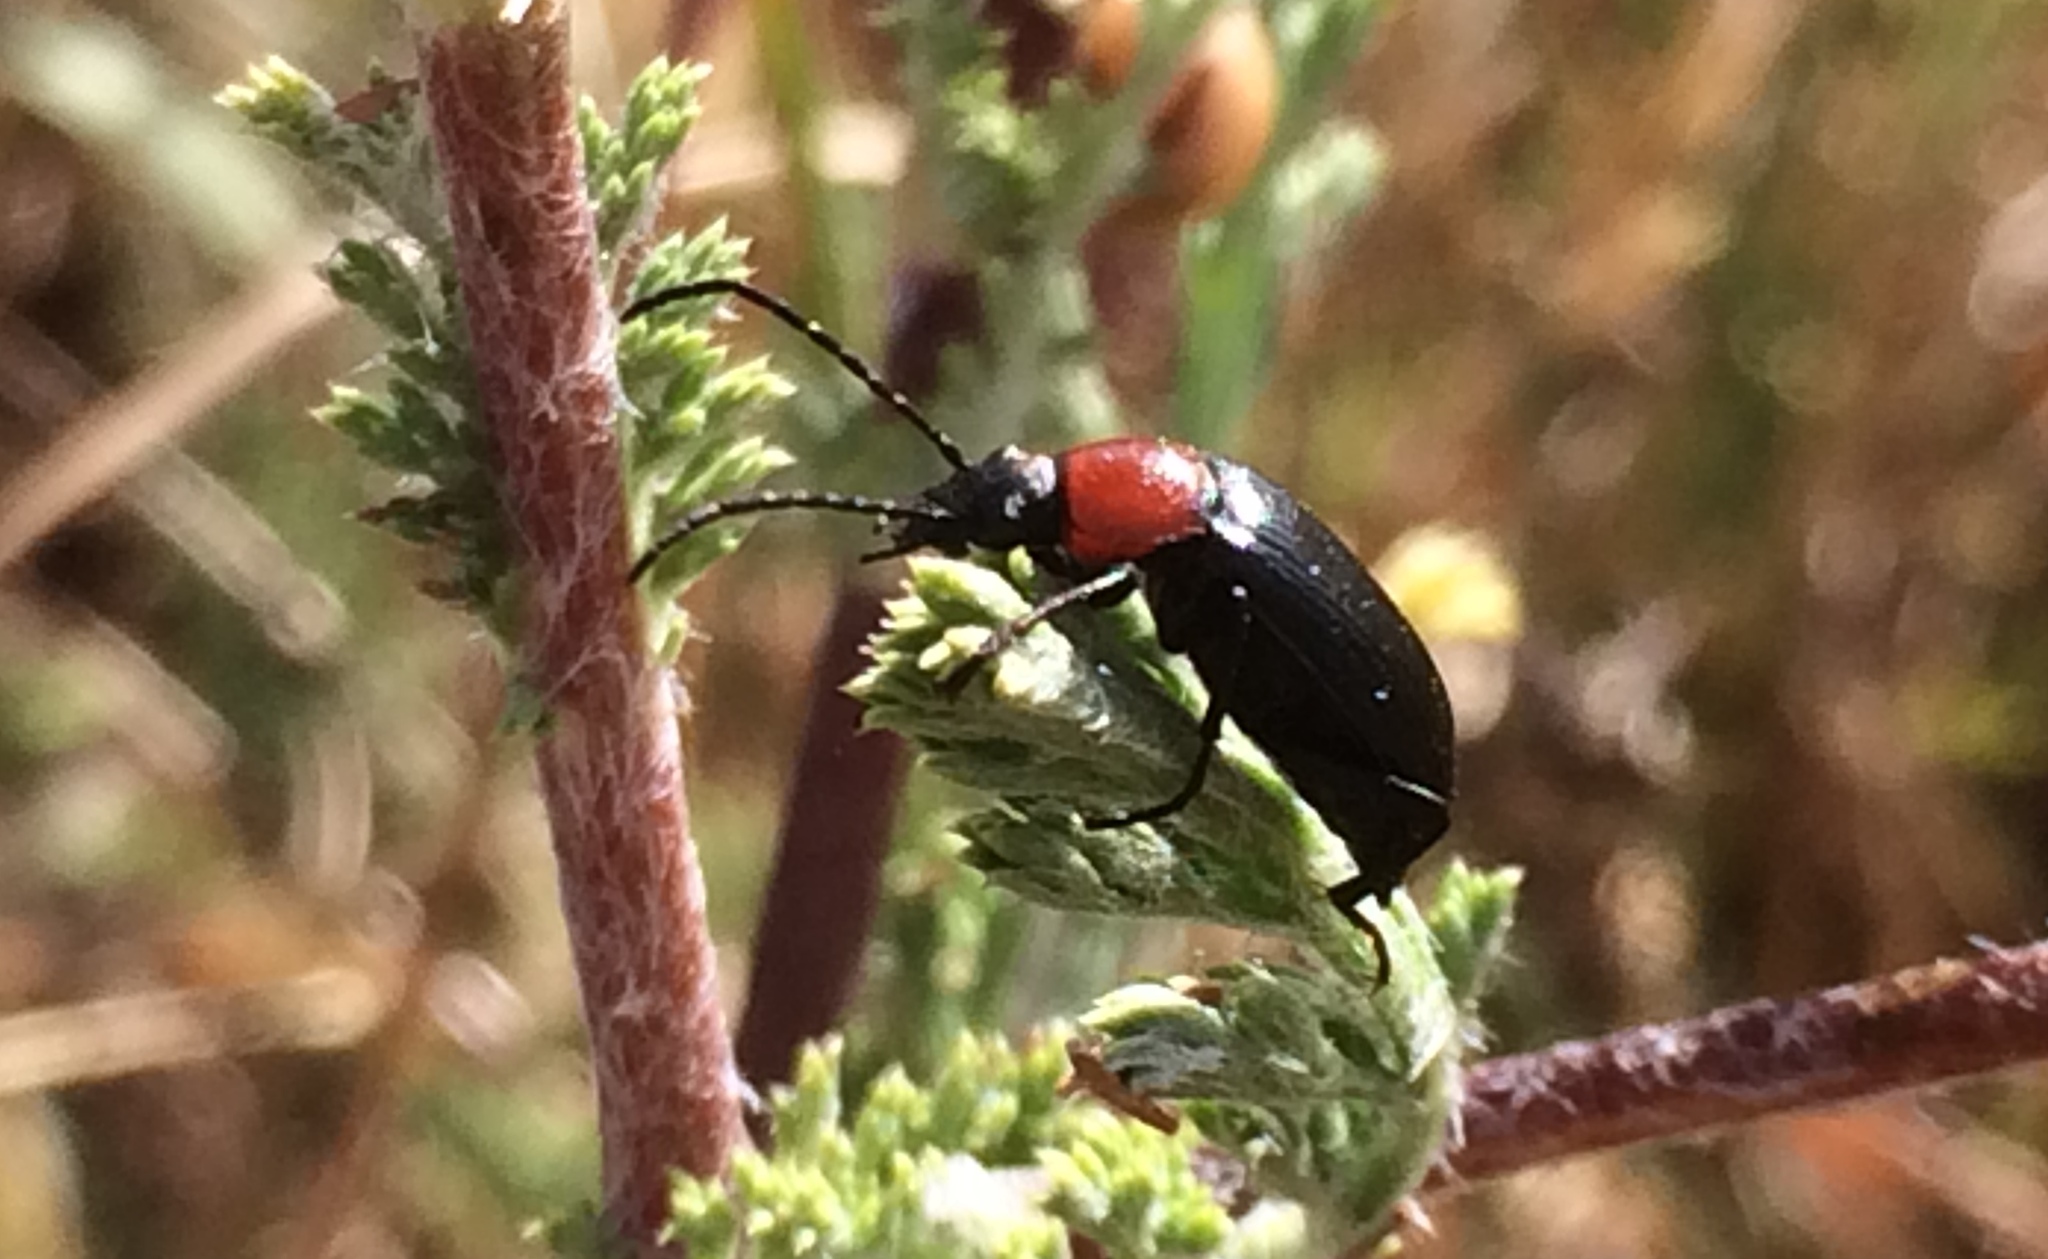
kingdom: Animalia
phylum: Arthropoda
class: Insecta
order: Coleoptera
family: Tenebrionidae
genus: Heliotaurus
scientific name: Heliotaurus ruficollis
